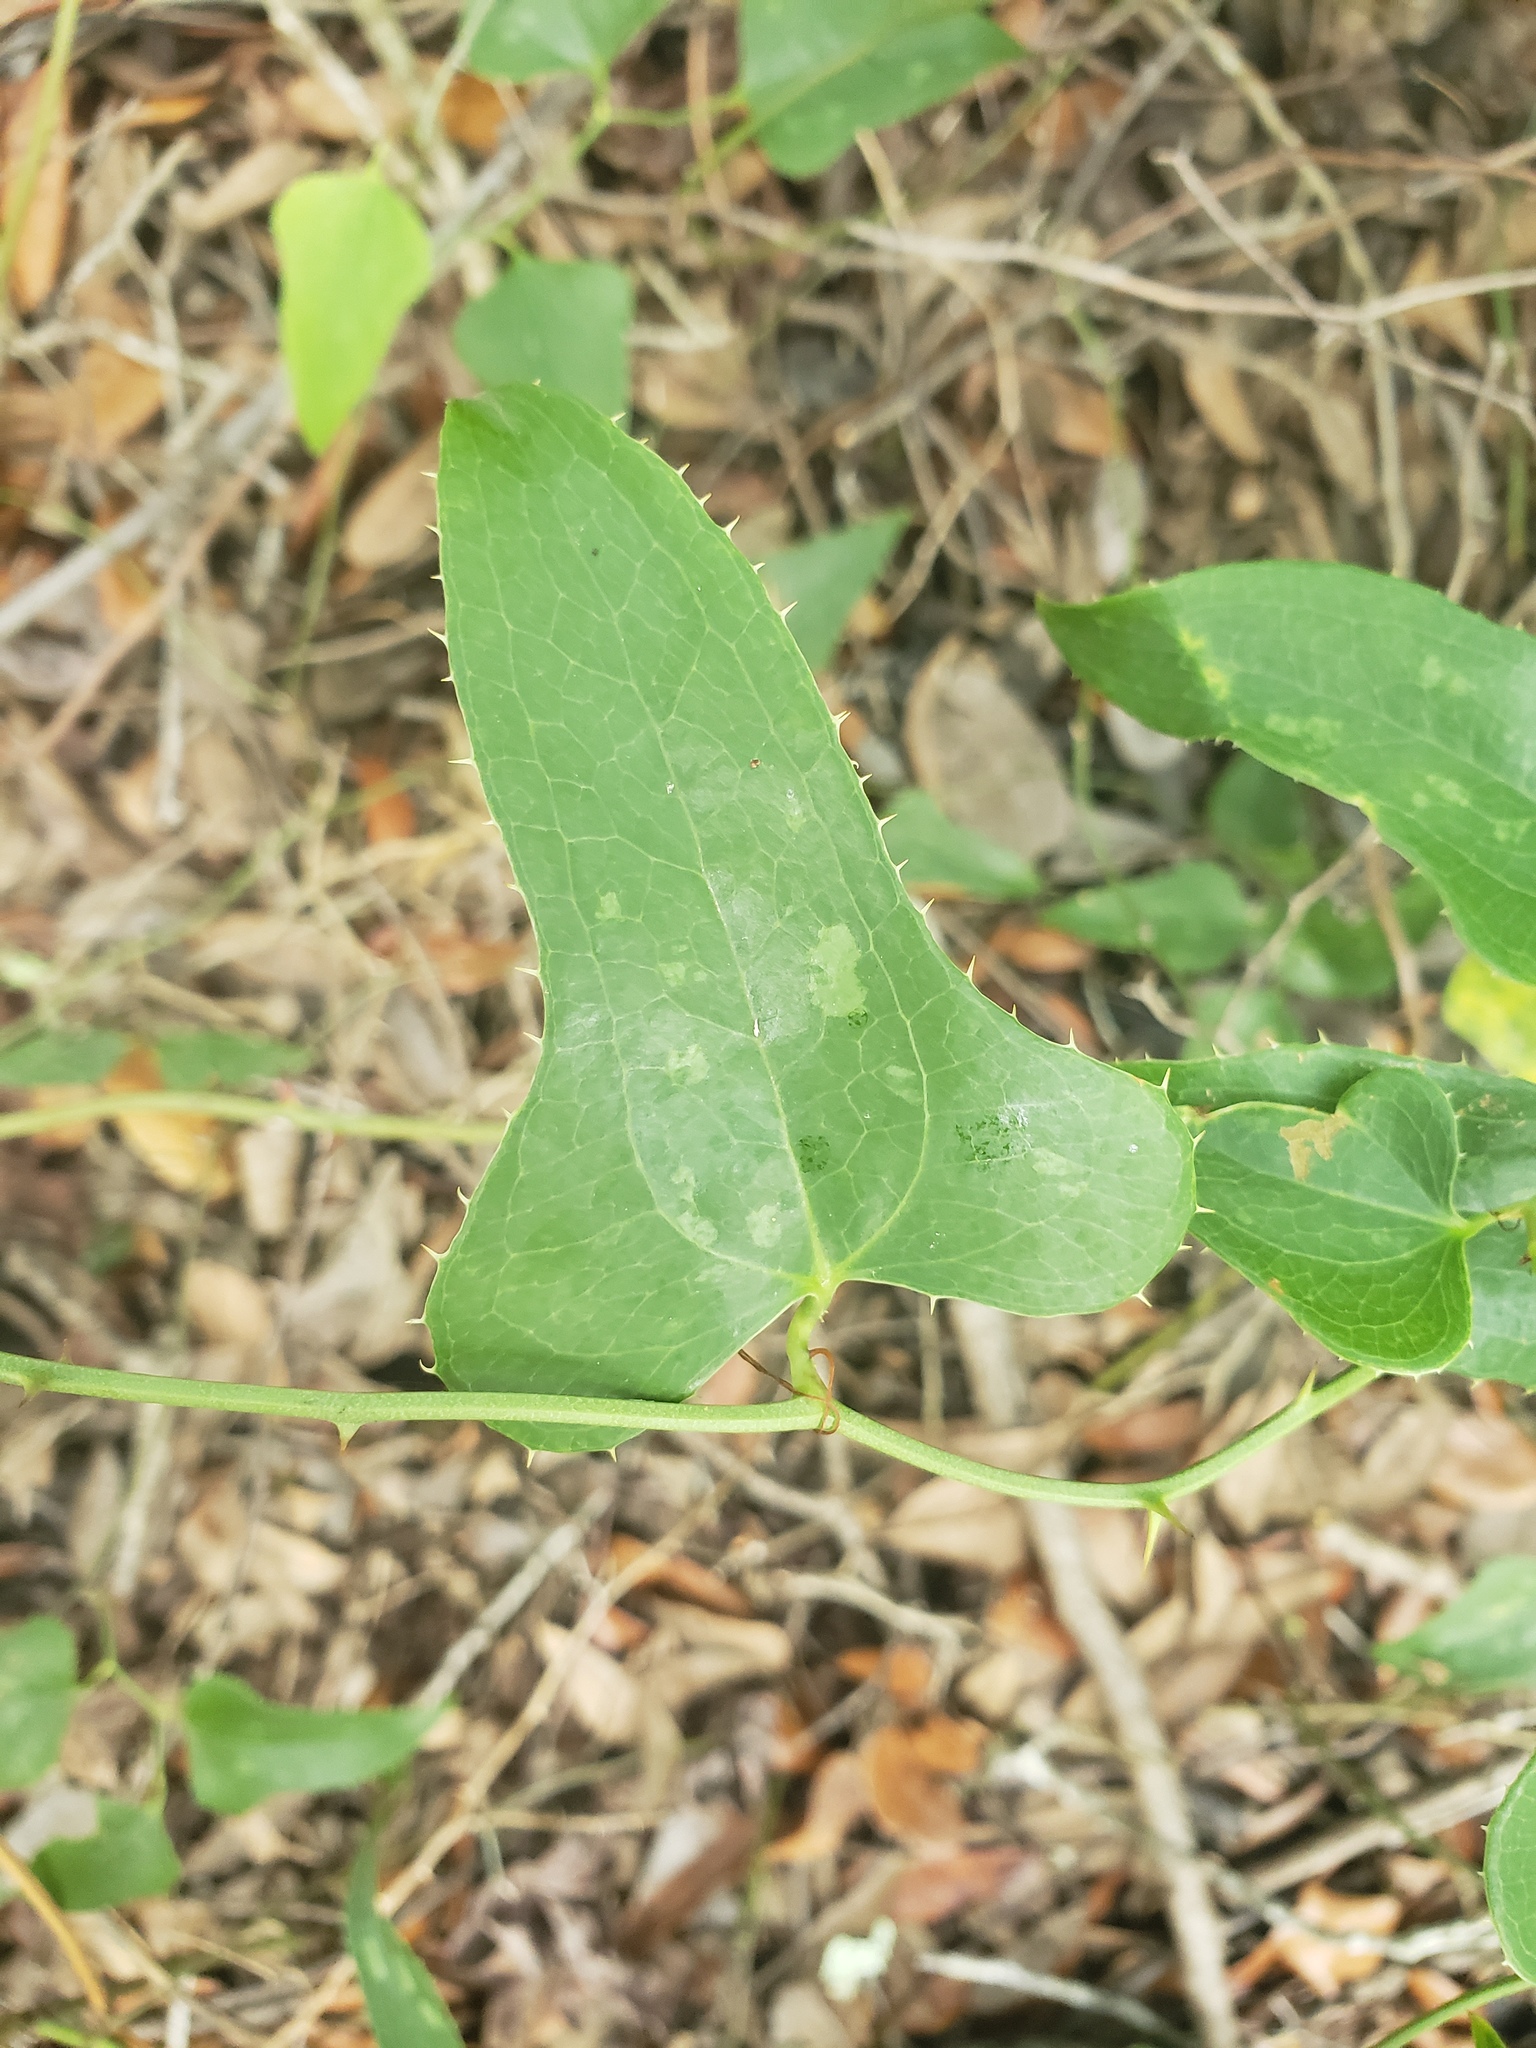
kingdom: Plantae
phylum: Tracheophyta
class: Liliopsida
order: Liliales
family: Smilacaceae
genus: Smilax
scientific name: Smilax bona-nox
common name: Catbrier
